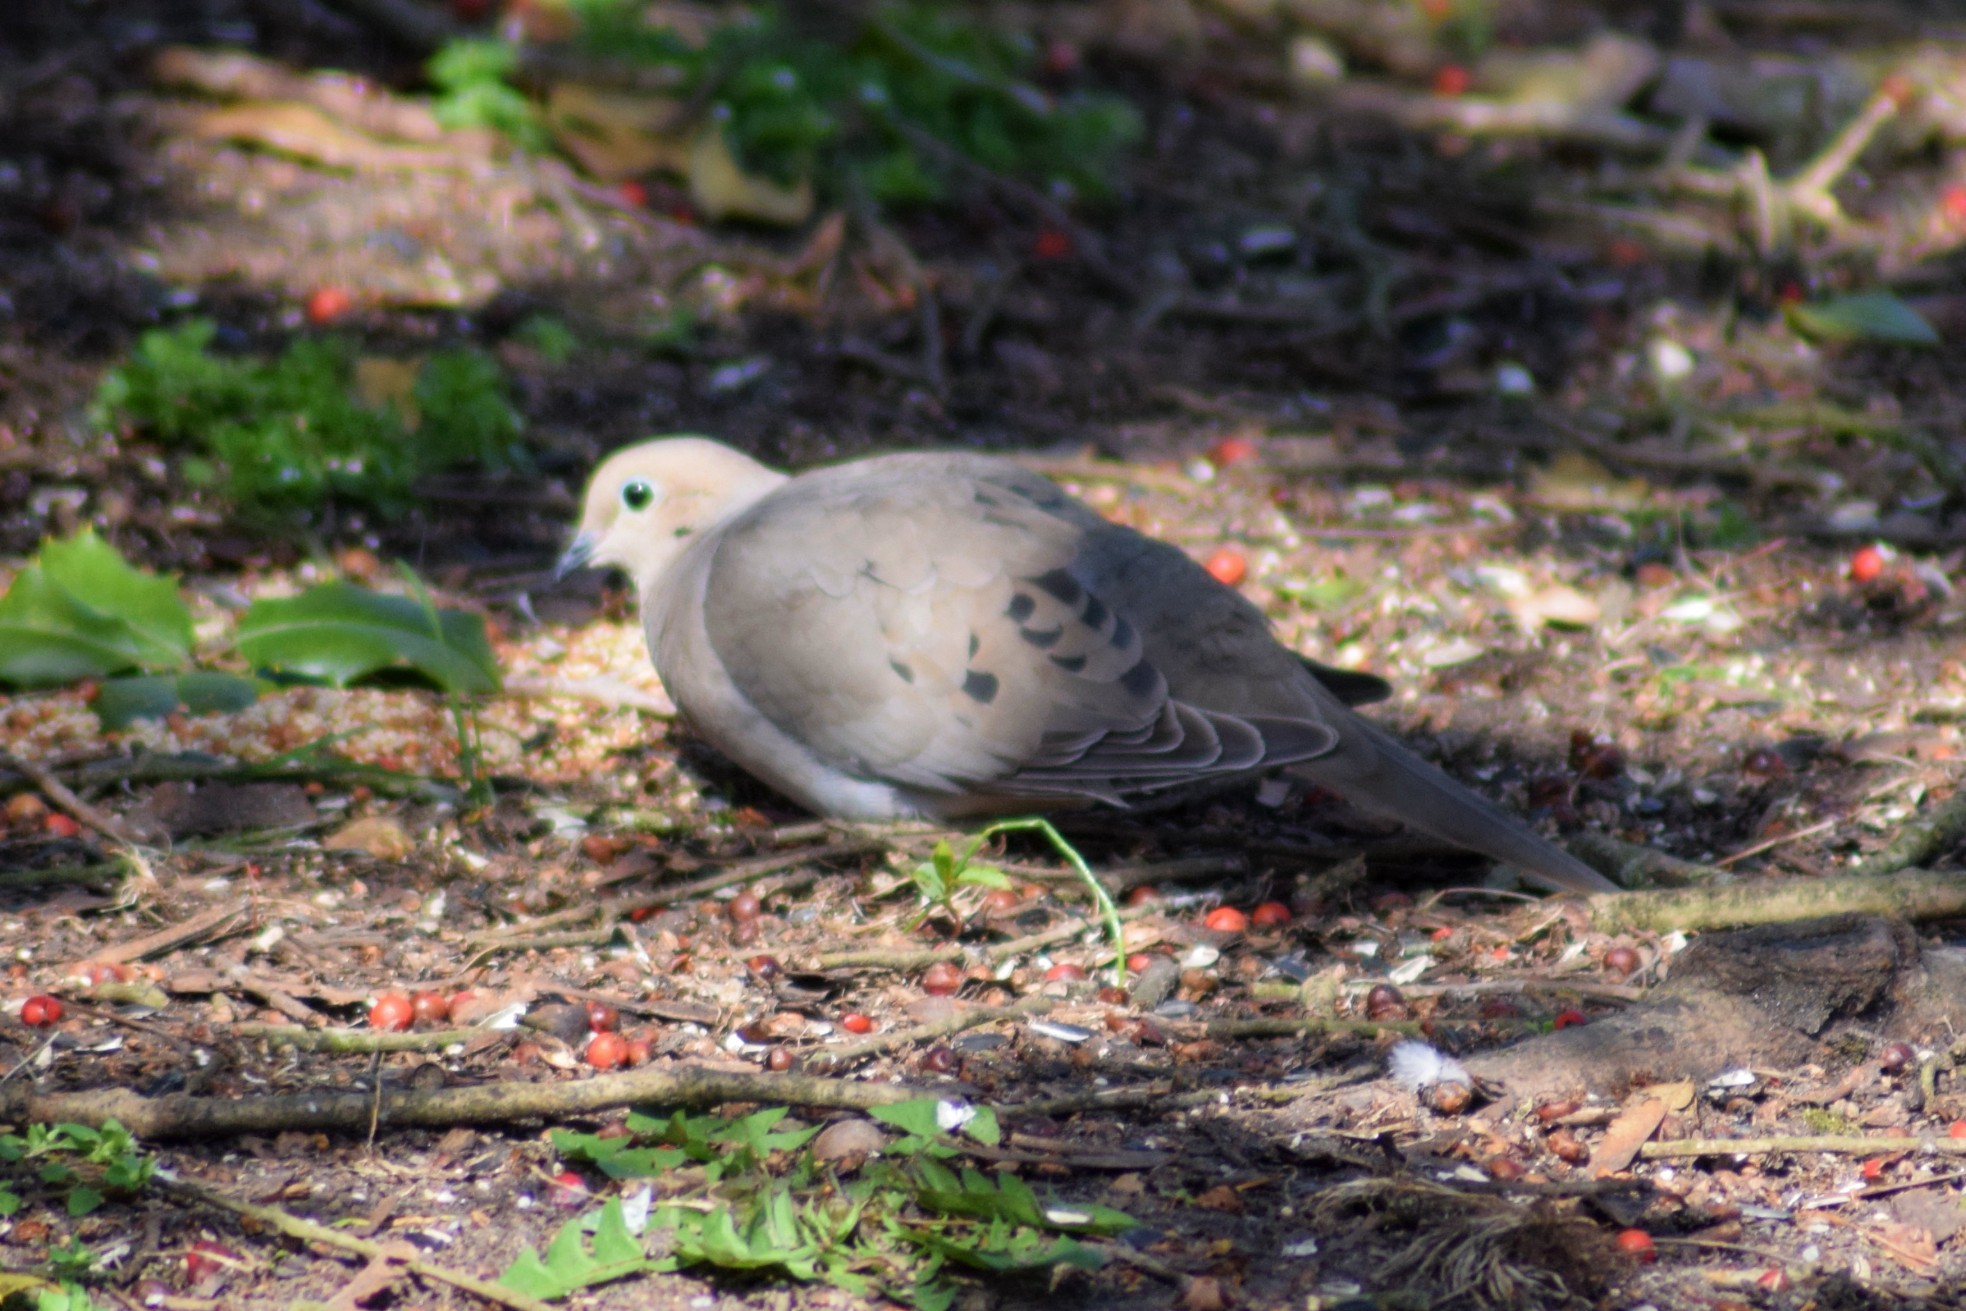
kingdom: Animalia
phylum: Chordata
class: Aves
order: Columbiformes
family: Columbidae
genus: Zenaida
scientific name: Zenaida macroura
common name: Mourning dove
